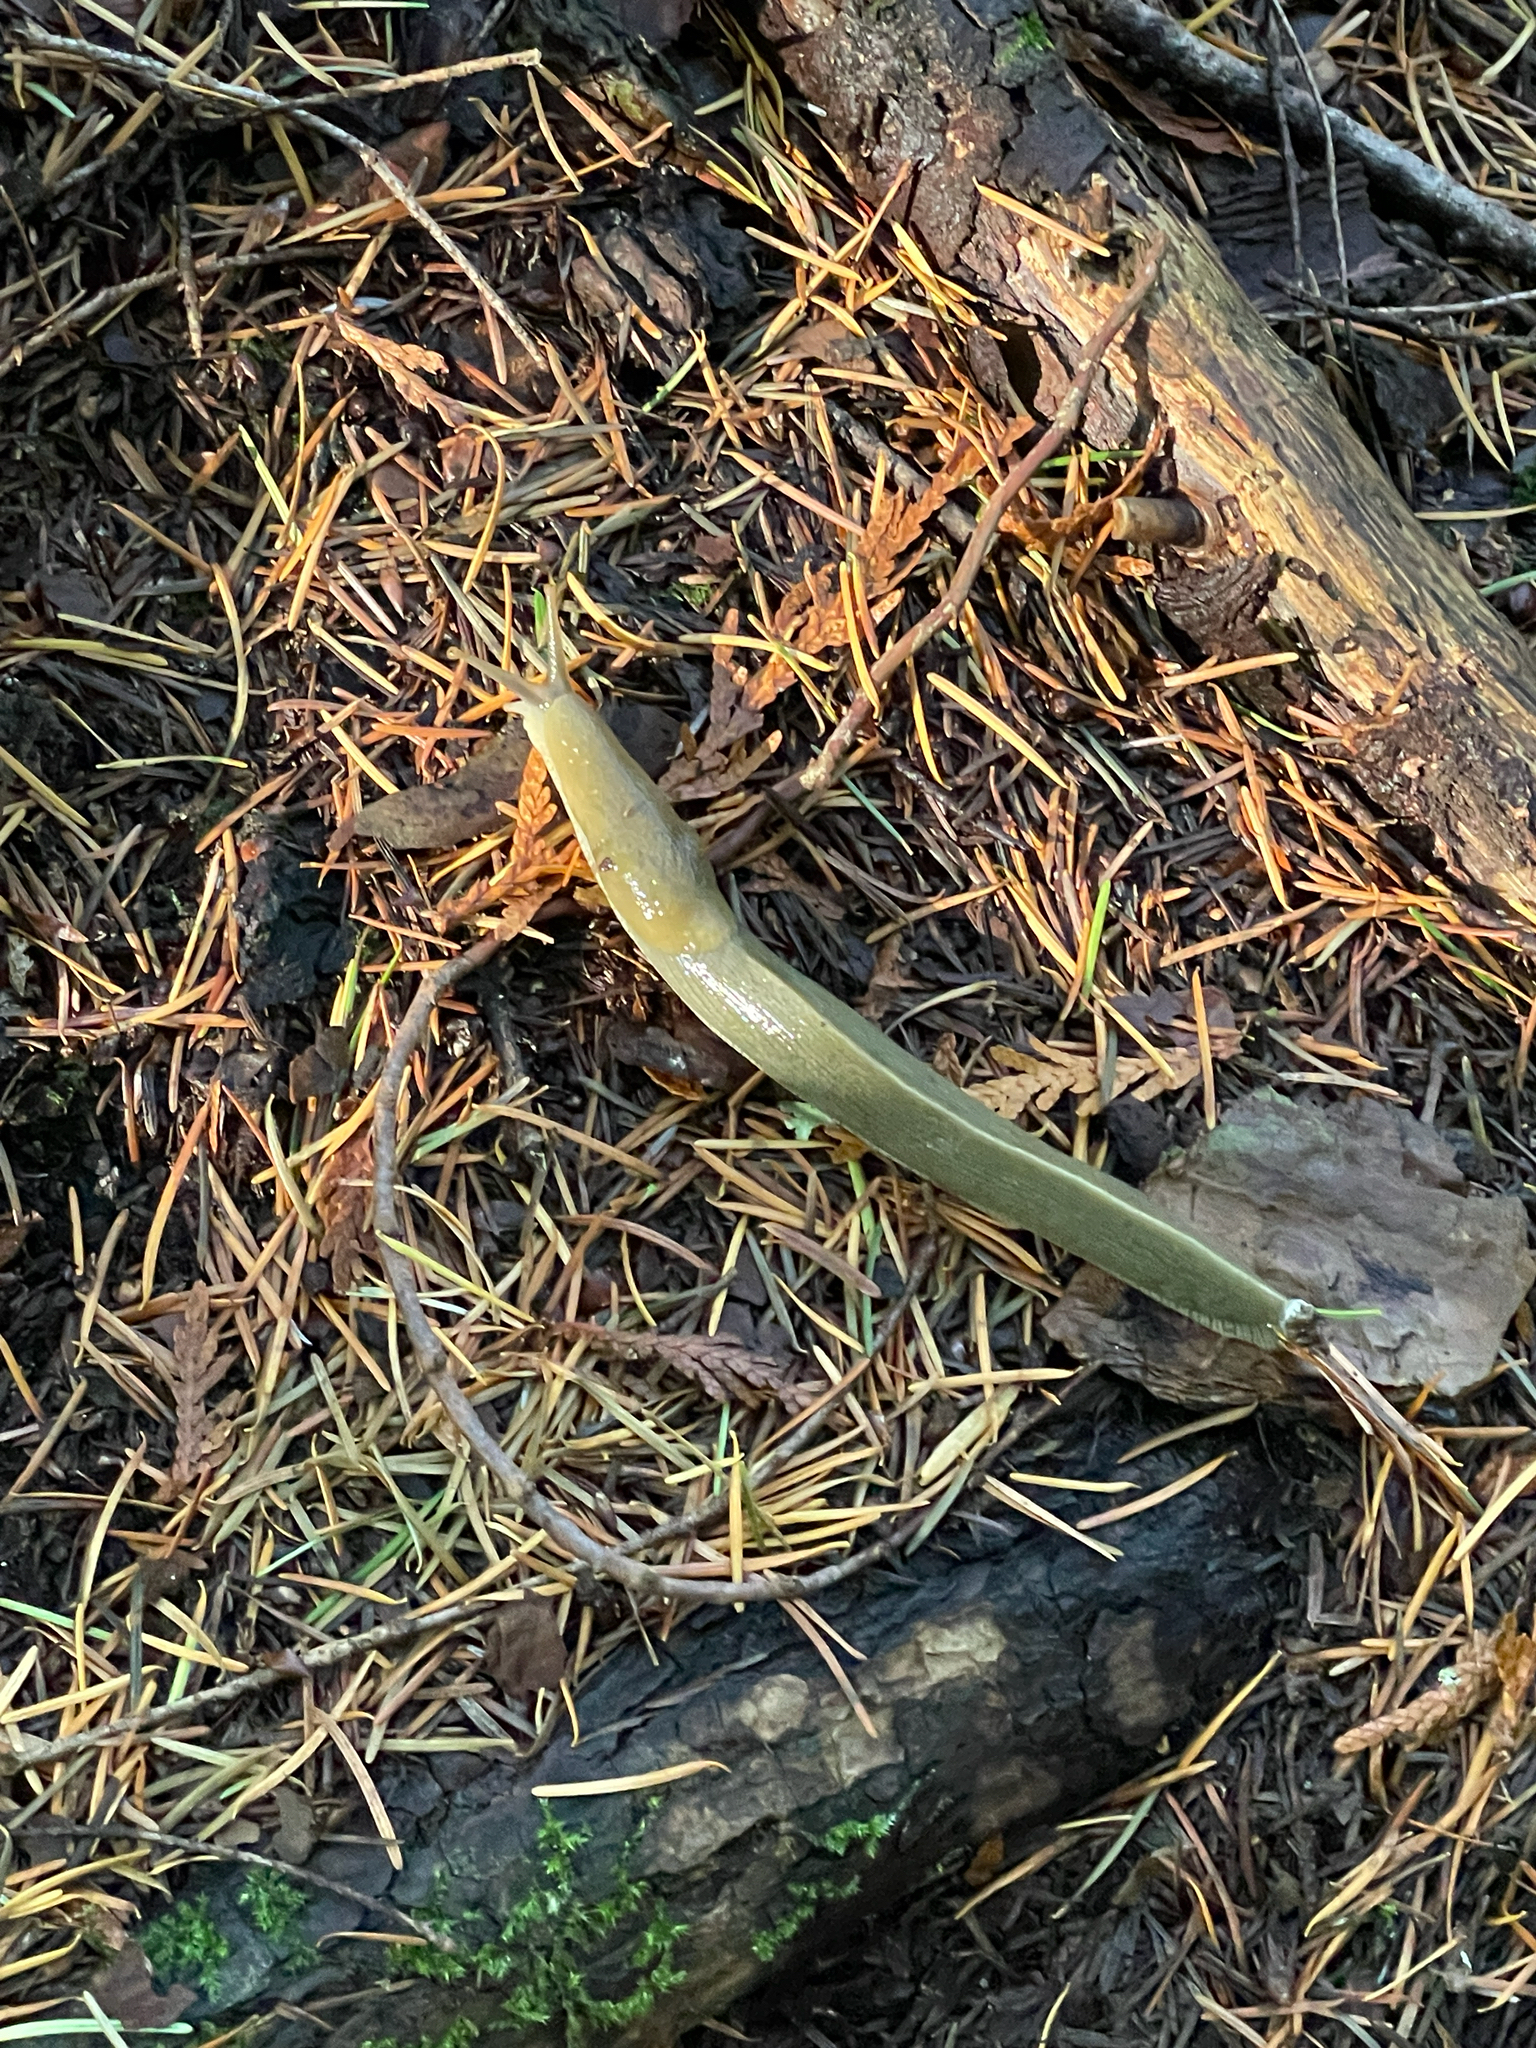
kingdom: Animalia
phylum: Mollusca
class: Gastropoda
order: Stylommatophora
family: Ariolimacidae
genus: Ariolimax
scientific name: Ariolimax columbianus
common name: Pacific banana slug
